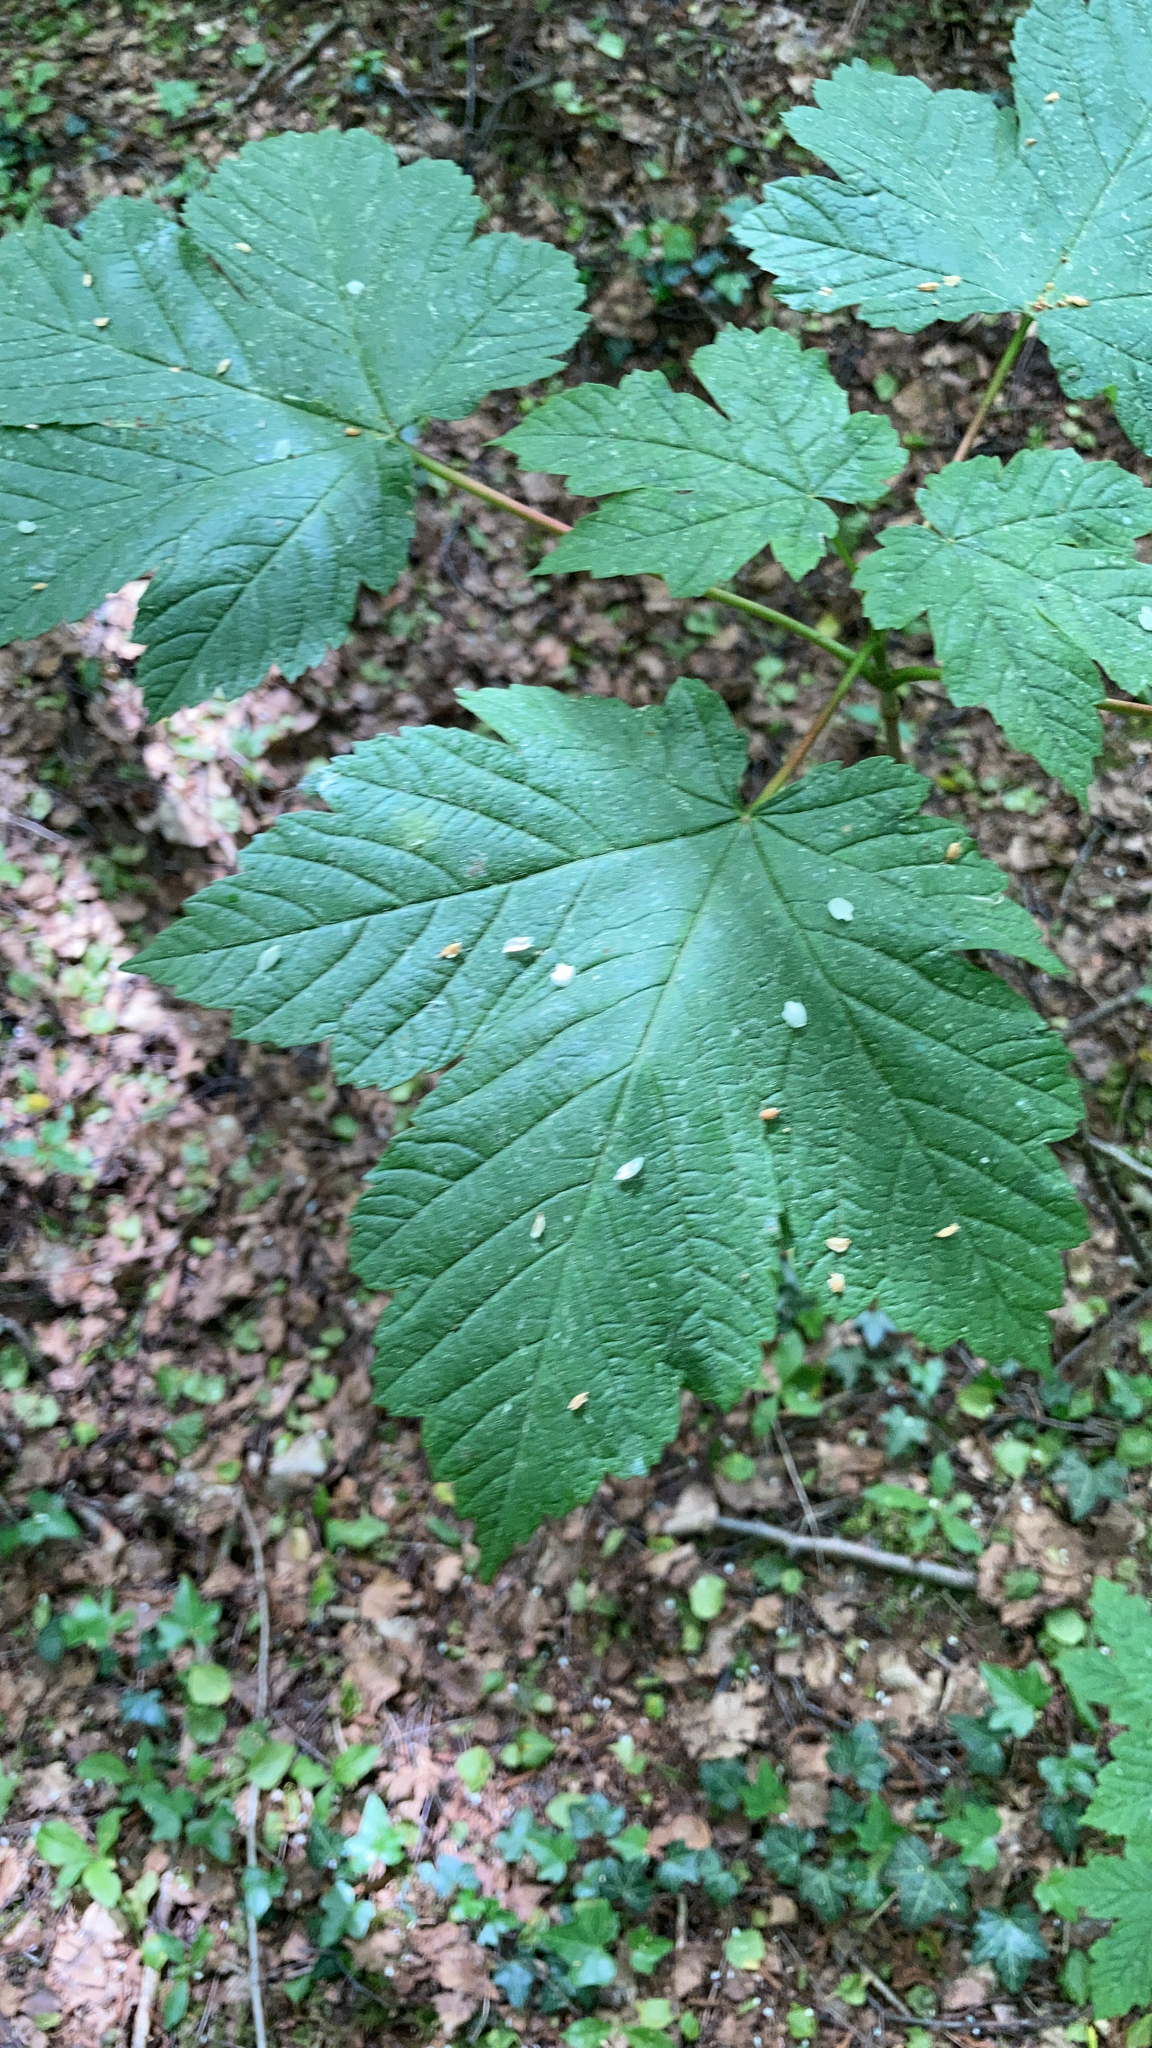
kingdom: Plantae
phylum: Tracheophyta
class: Magnoliopsida
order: Sapindales
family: Sapindaceae
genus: Acer
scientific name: Acer pseudoplatanus
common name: Sycamore
